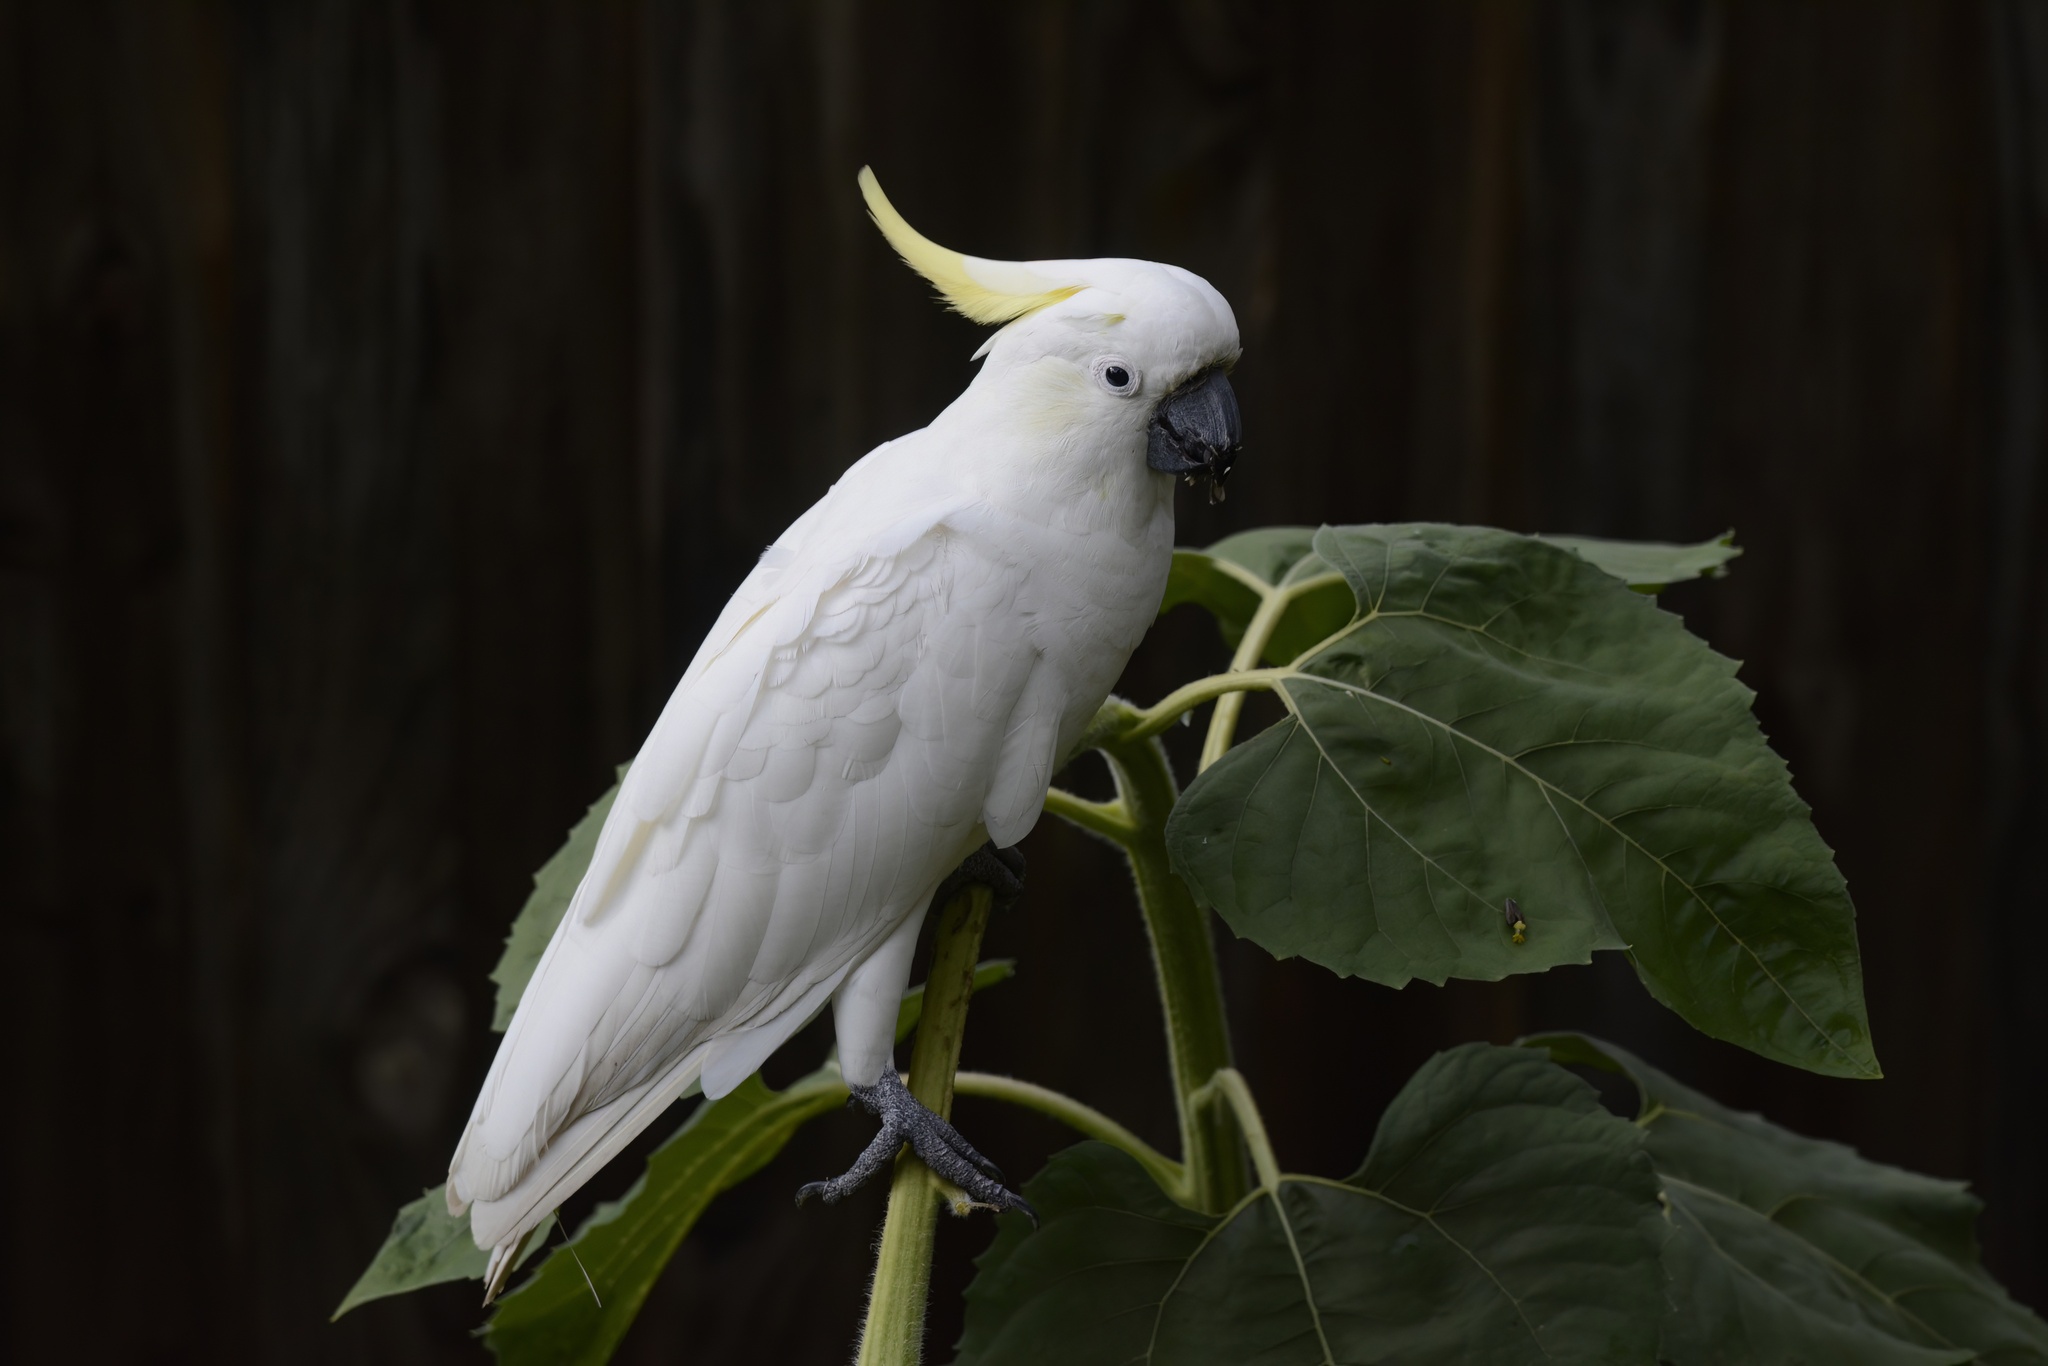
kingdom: Animalia
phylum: Chordata
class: Aves
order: Psittaciformes
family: Psittacidae
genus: Cacatua
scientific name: Cacatua galerita
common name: Sulphur-crested cockatoo
